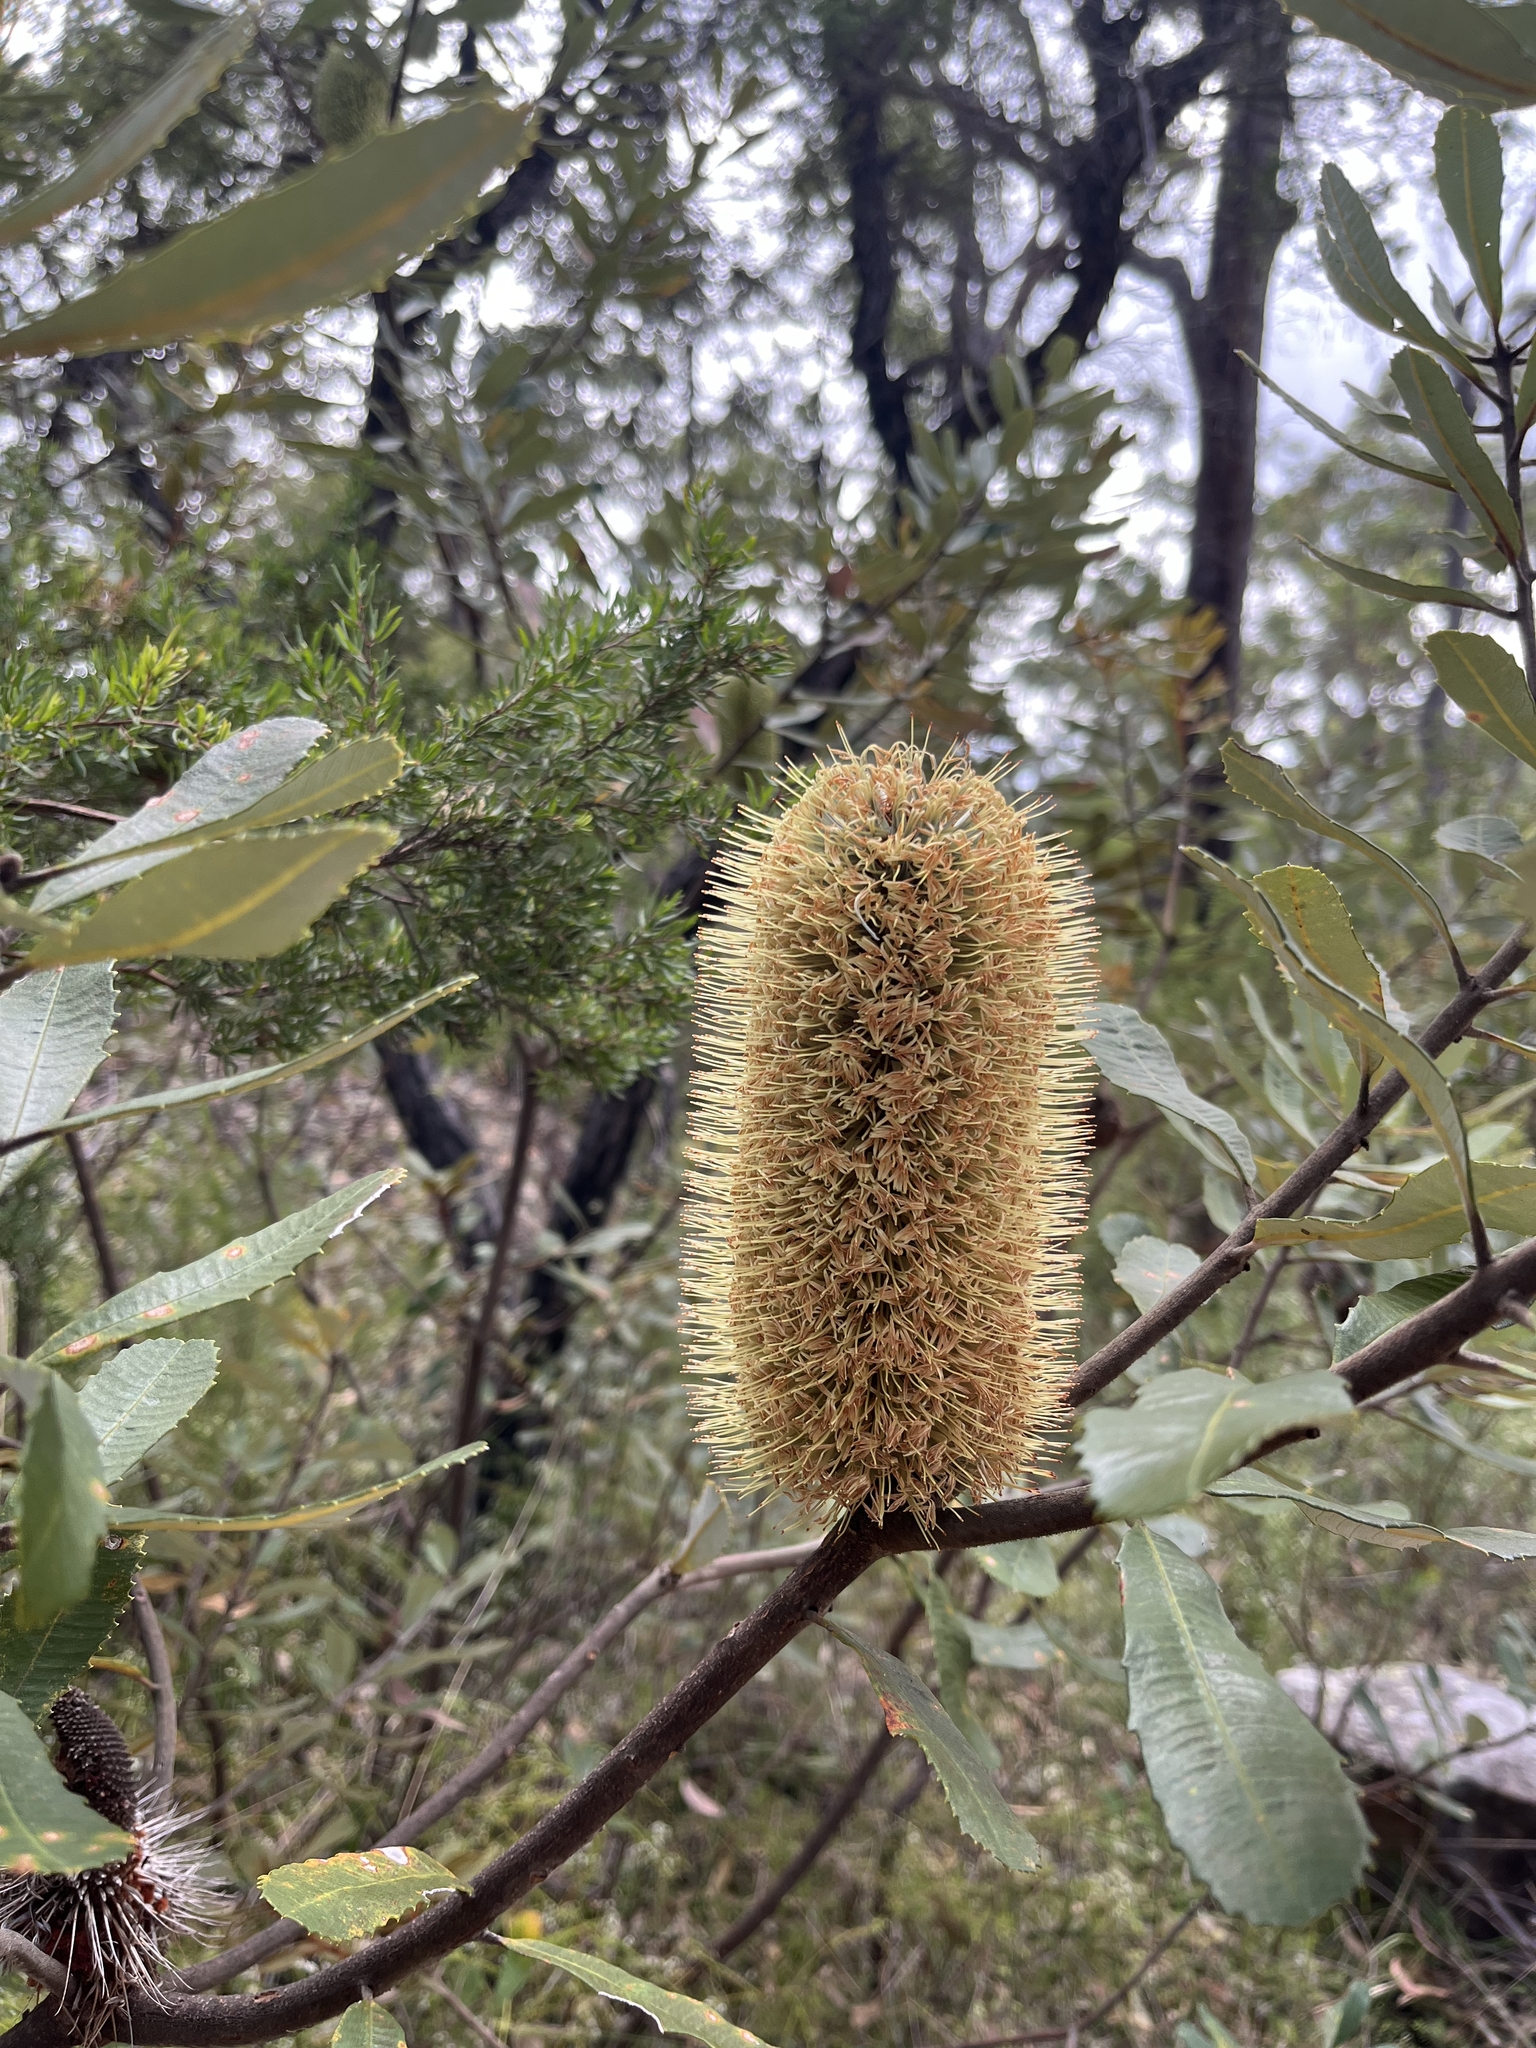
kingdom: Plantae
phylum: Tracheophyta
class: Magnoliopsida
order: Proteales
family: Proteaceae
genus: Banksia
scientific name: Banksia oblongifolia
